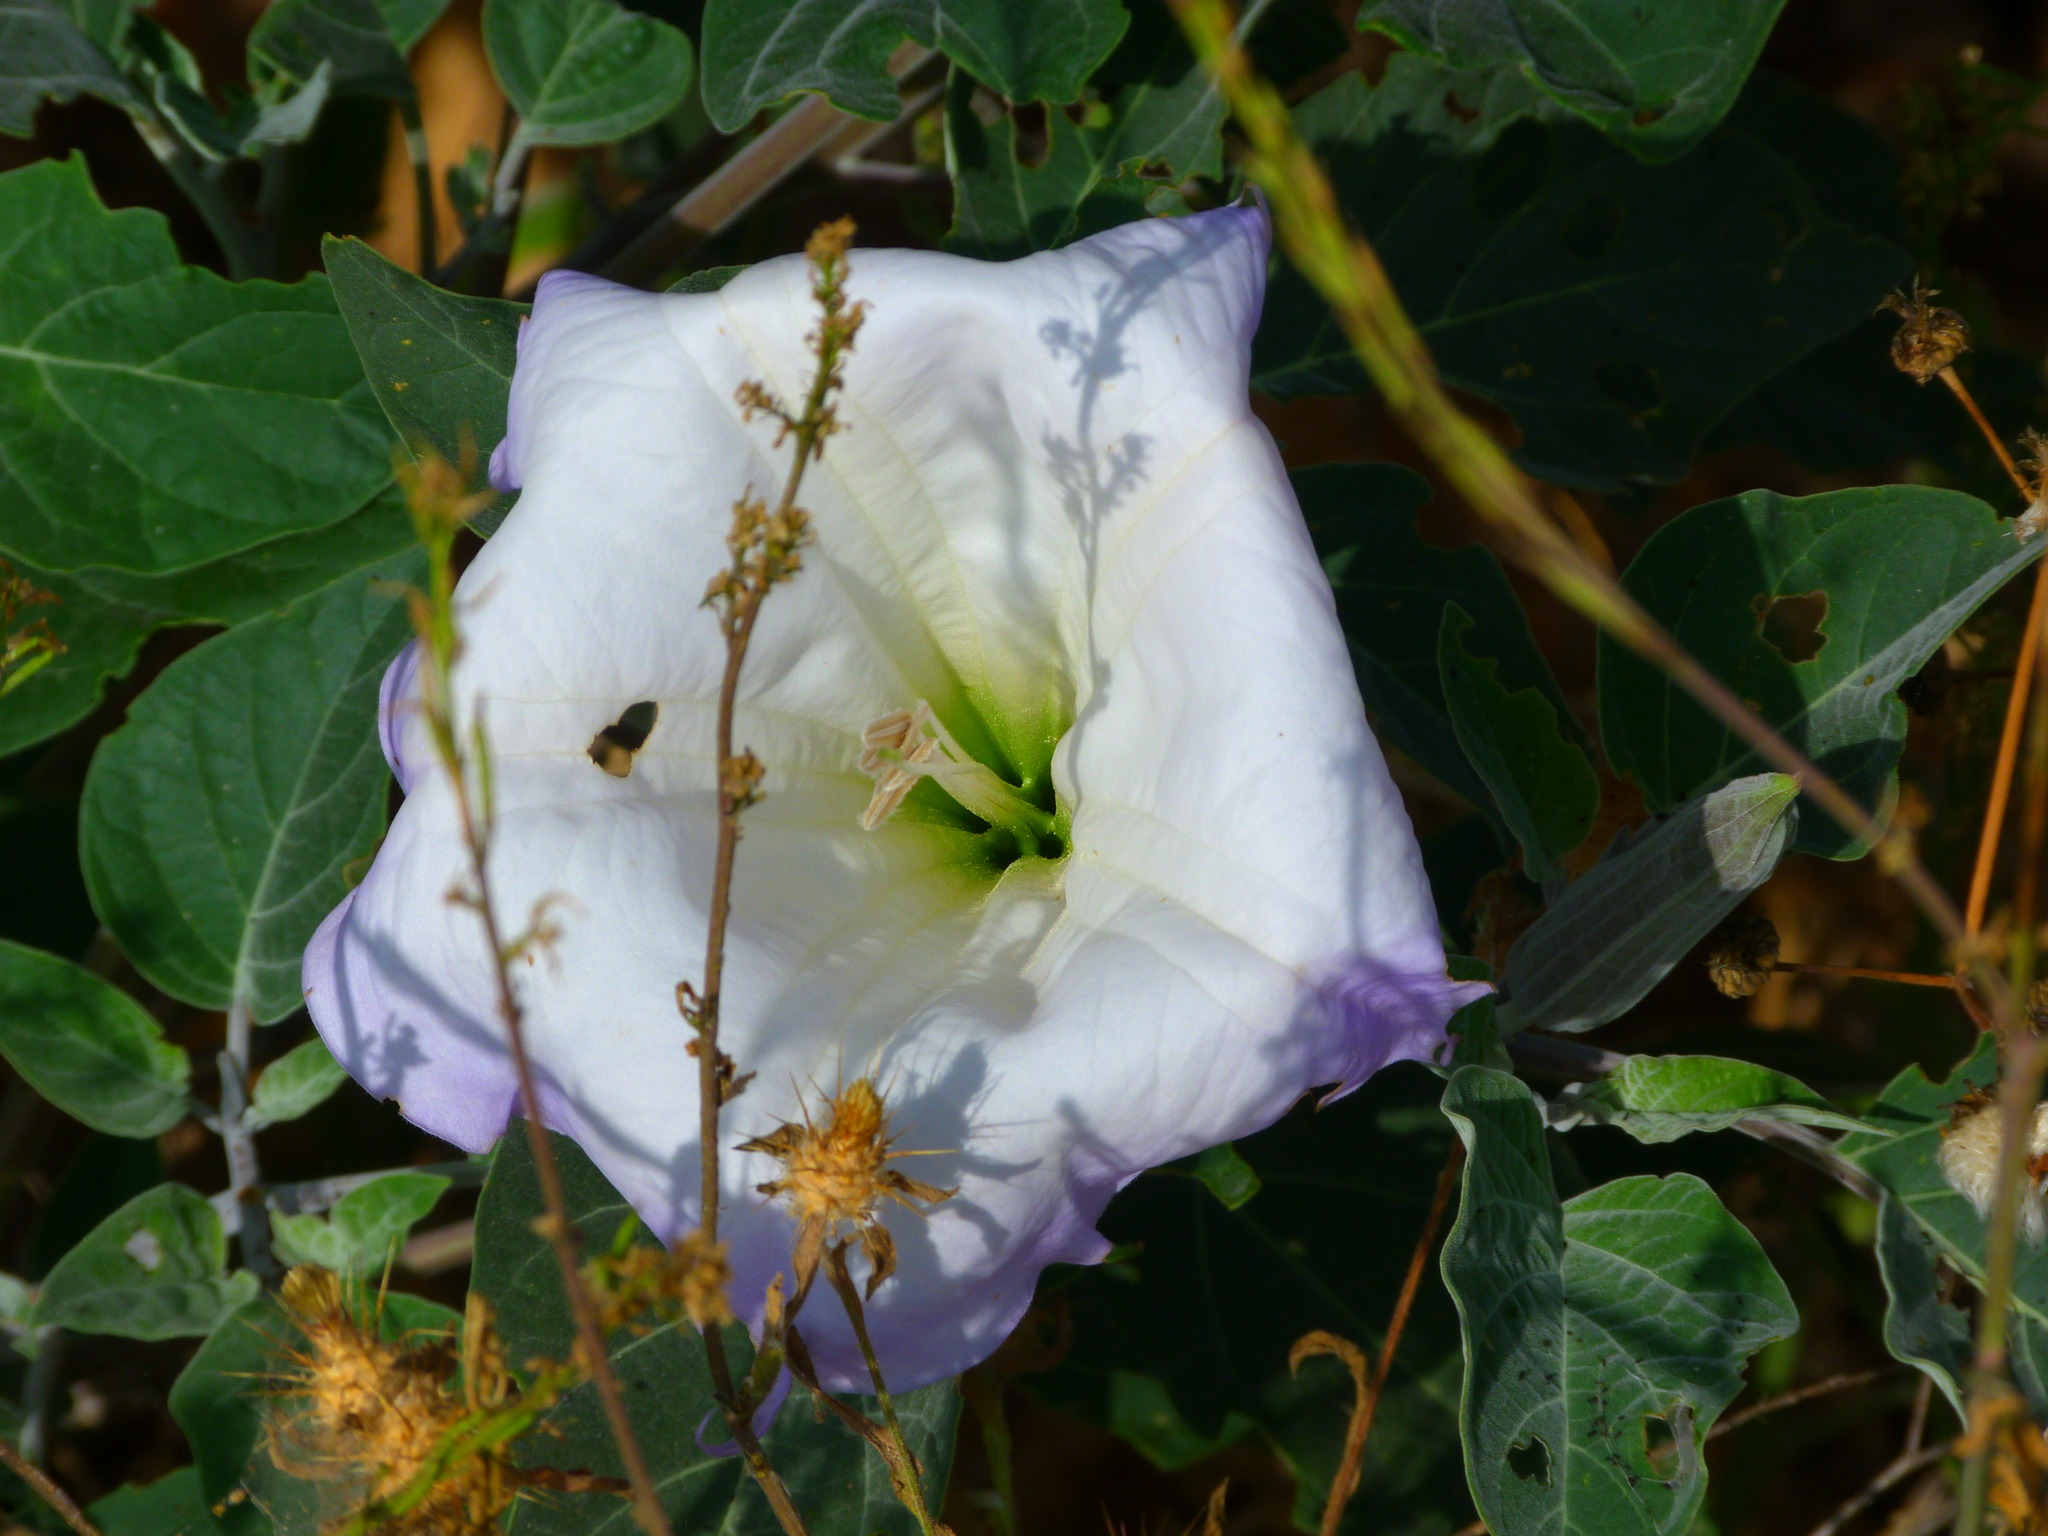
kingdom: Plantae
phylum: Tracheophyta
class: Magnoliopsida
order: Solanales
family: Solanaceae
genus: Datura
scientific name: Datura wrightii
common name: Sacred thorn-apple
